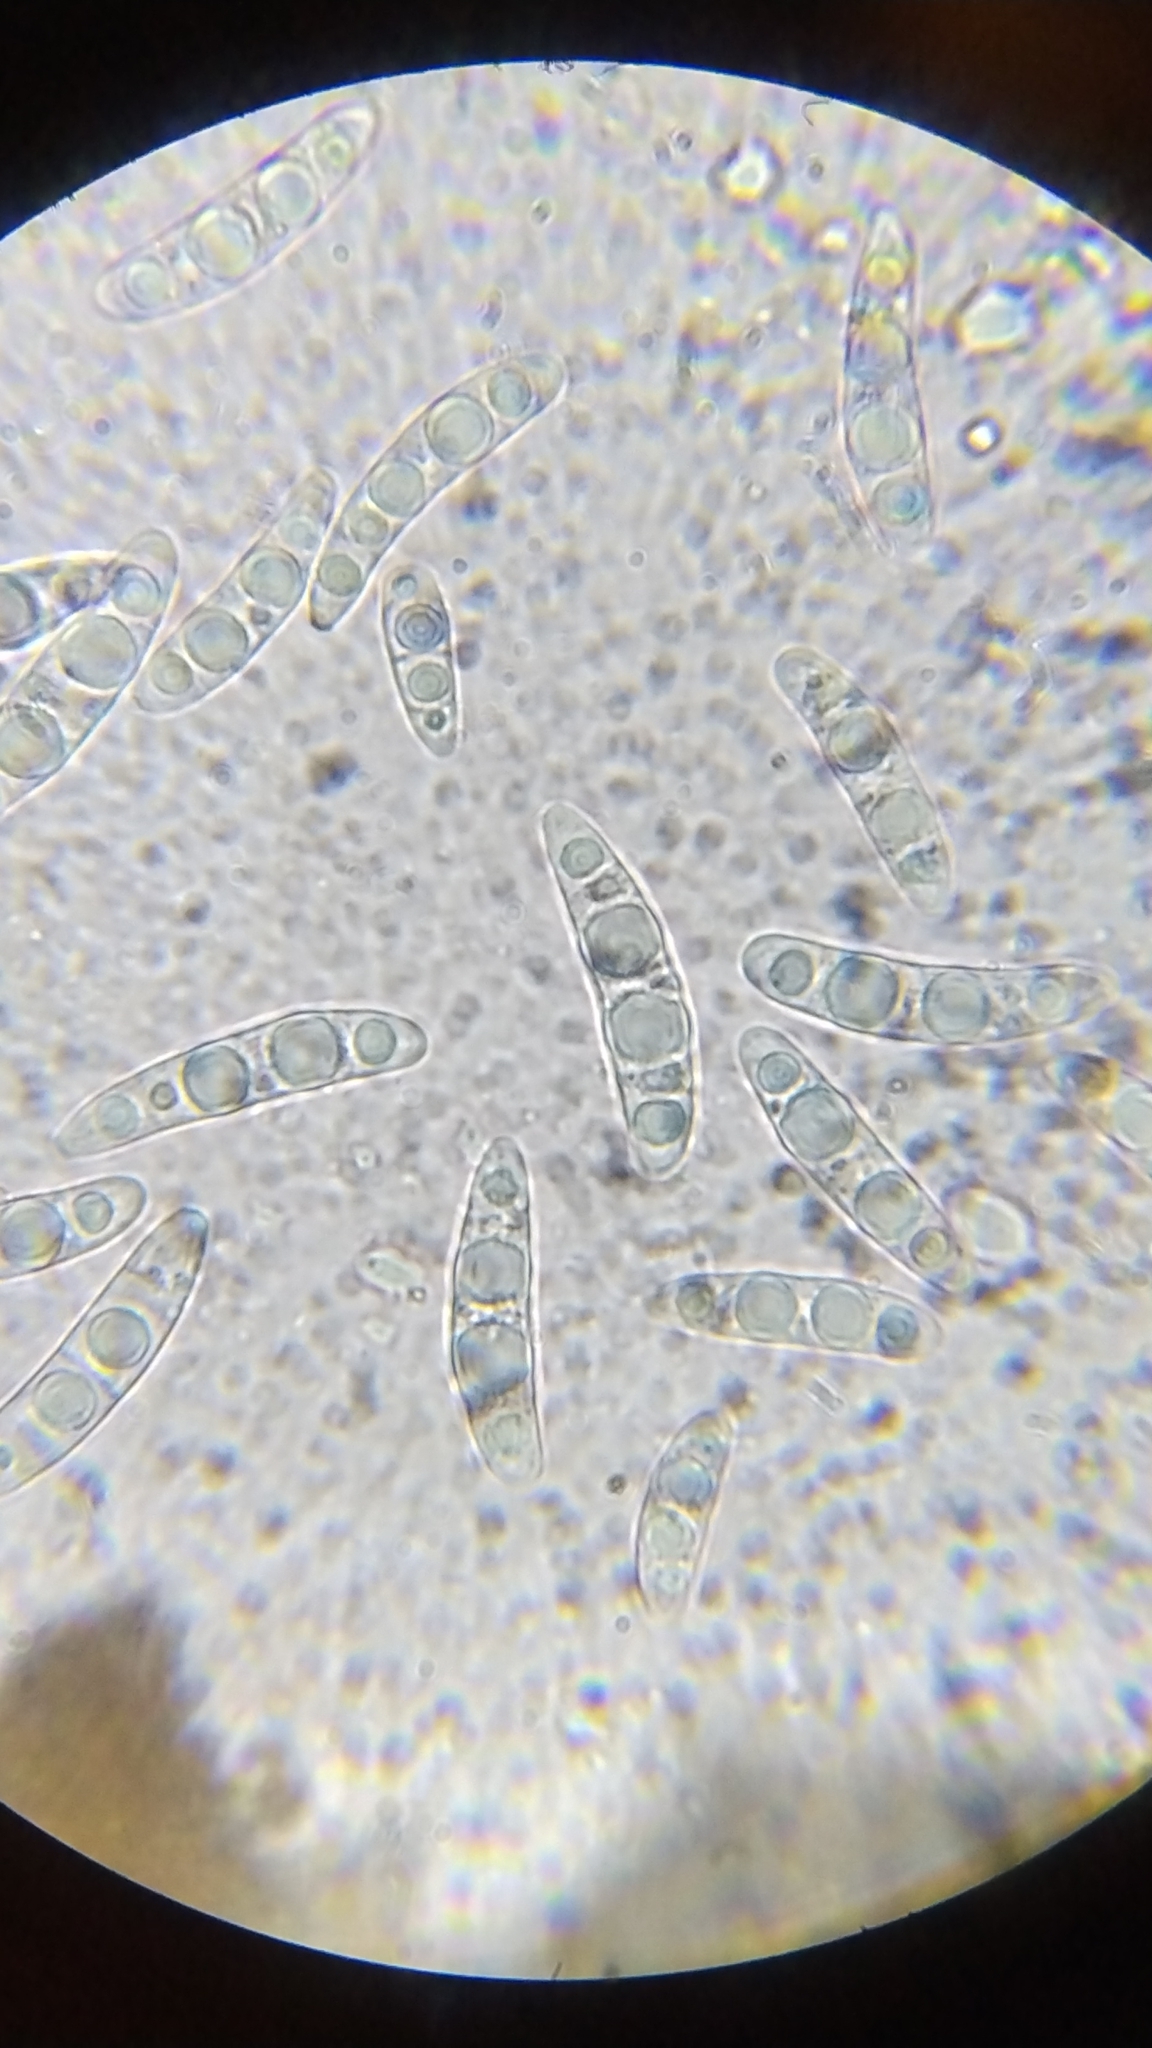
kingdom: Fungi
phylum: Ascomycota
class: Sordariomycetes
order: Pleurotheciales
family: Pleurotheciaceae
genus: Pleurothecium
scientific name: Pleurothecium recurvatum
